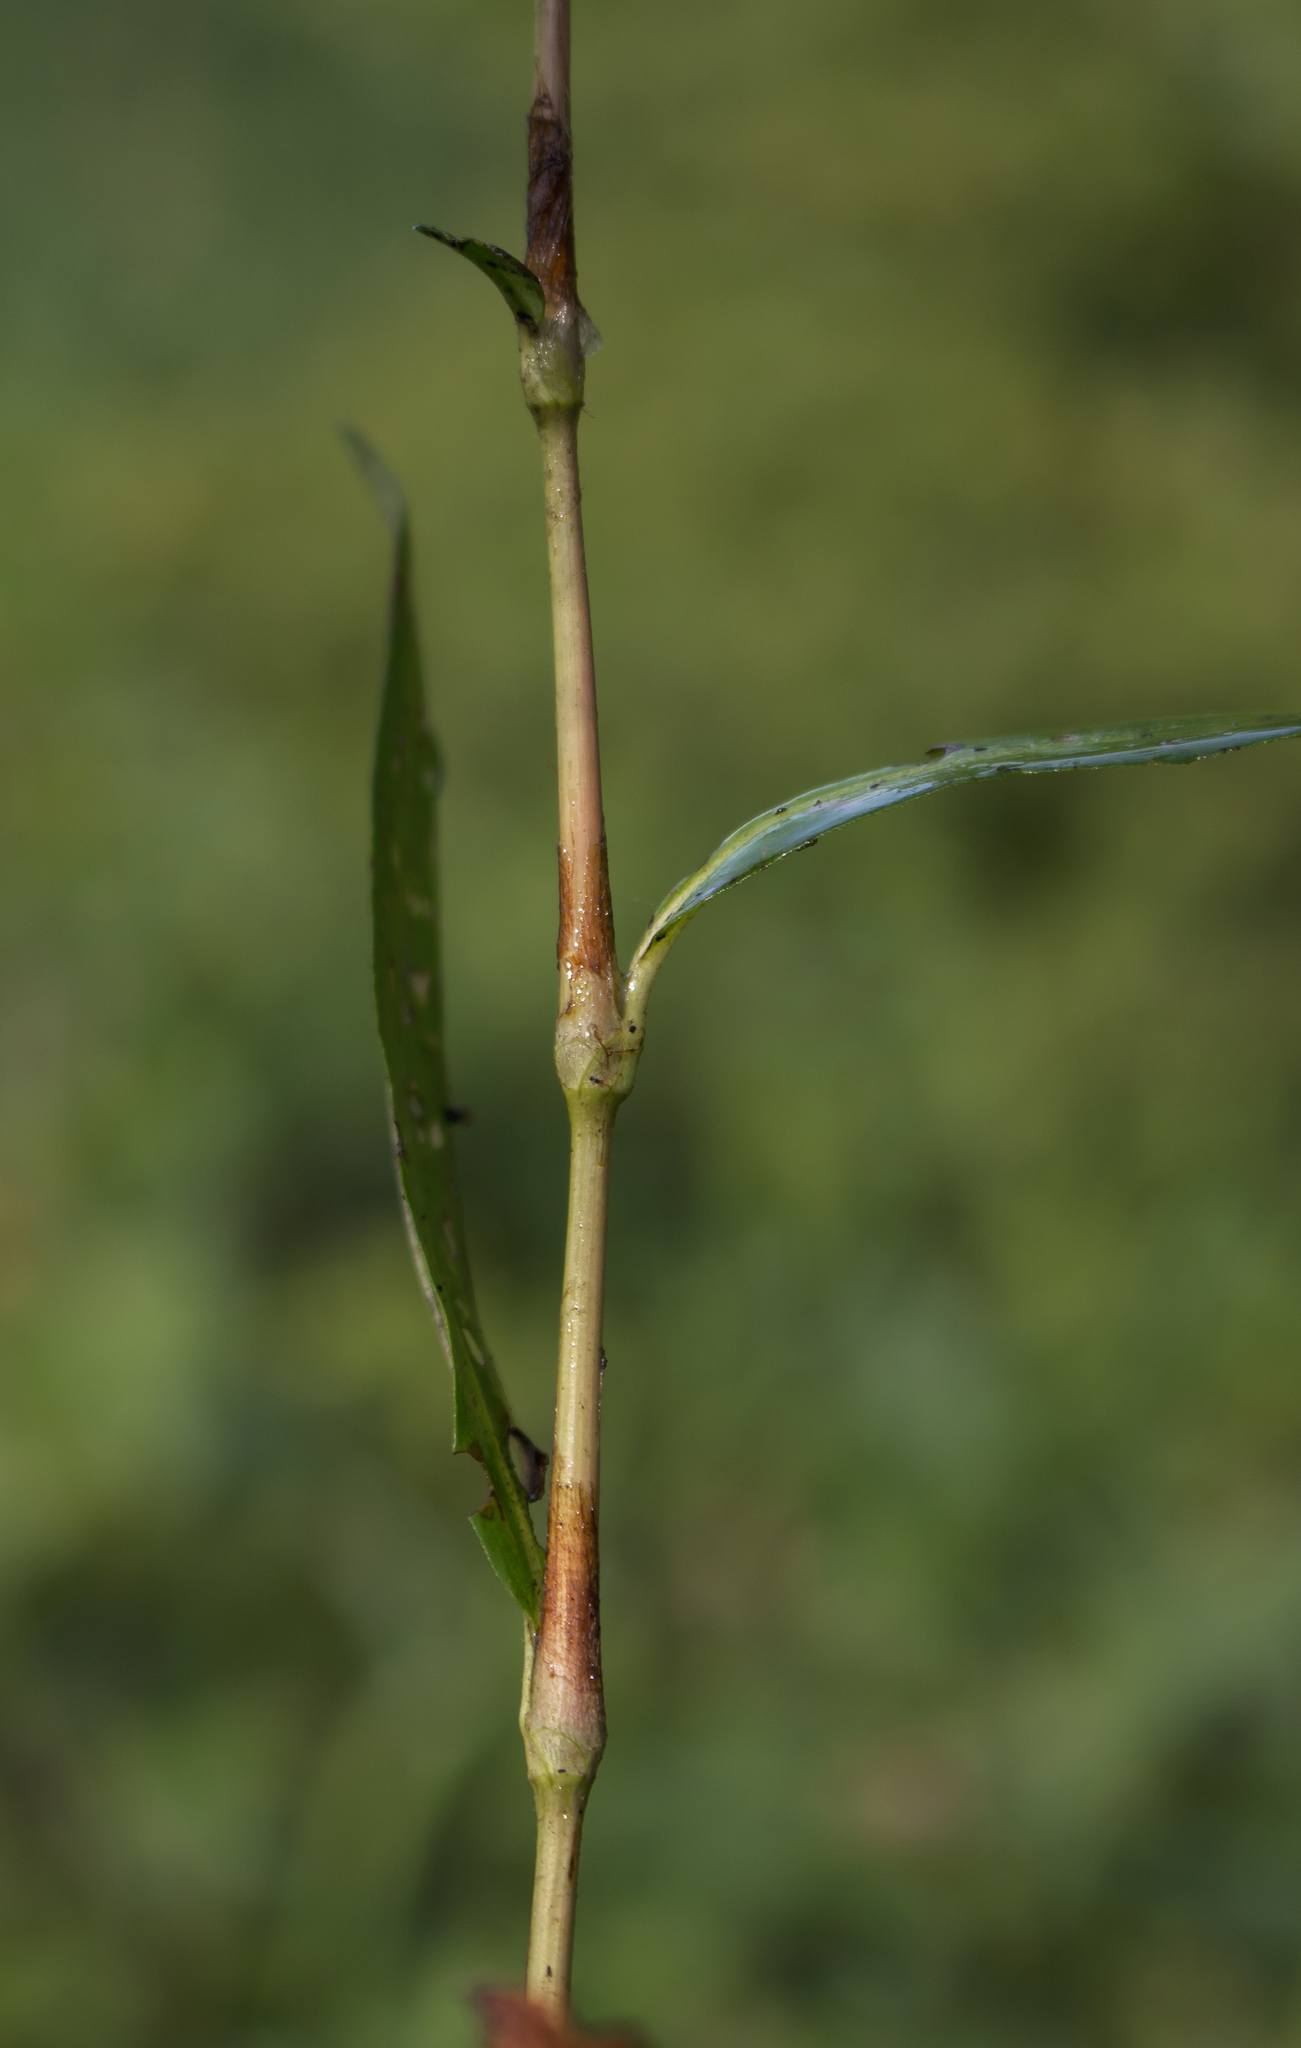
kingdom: Plantae
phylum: Tracheophyta
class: Magnoliopsida
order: Caryophyllales
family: Polygonaceae
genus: Persicaria
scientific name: Persicaria hydropiperoides
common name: Swamp smartweed
